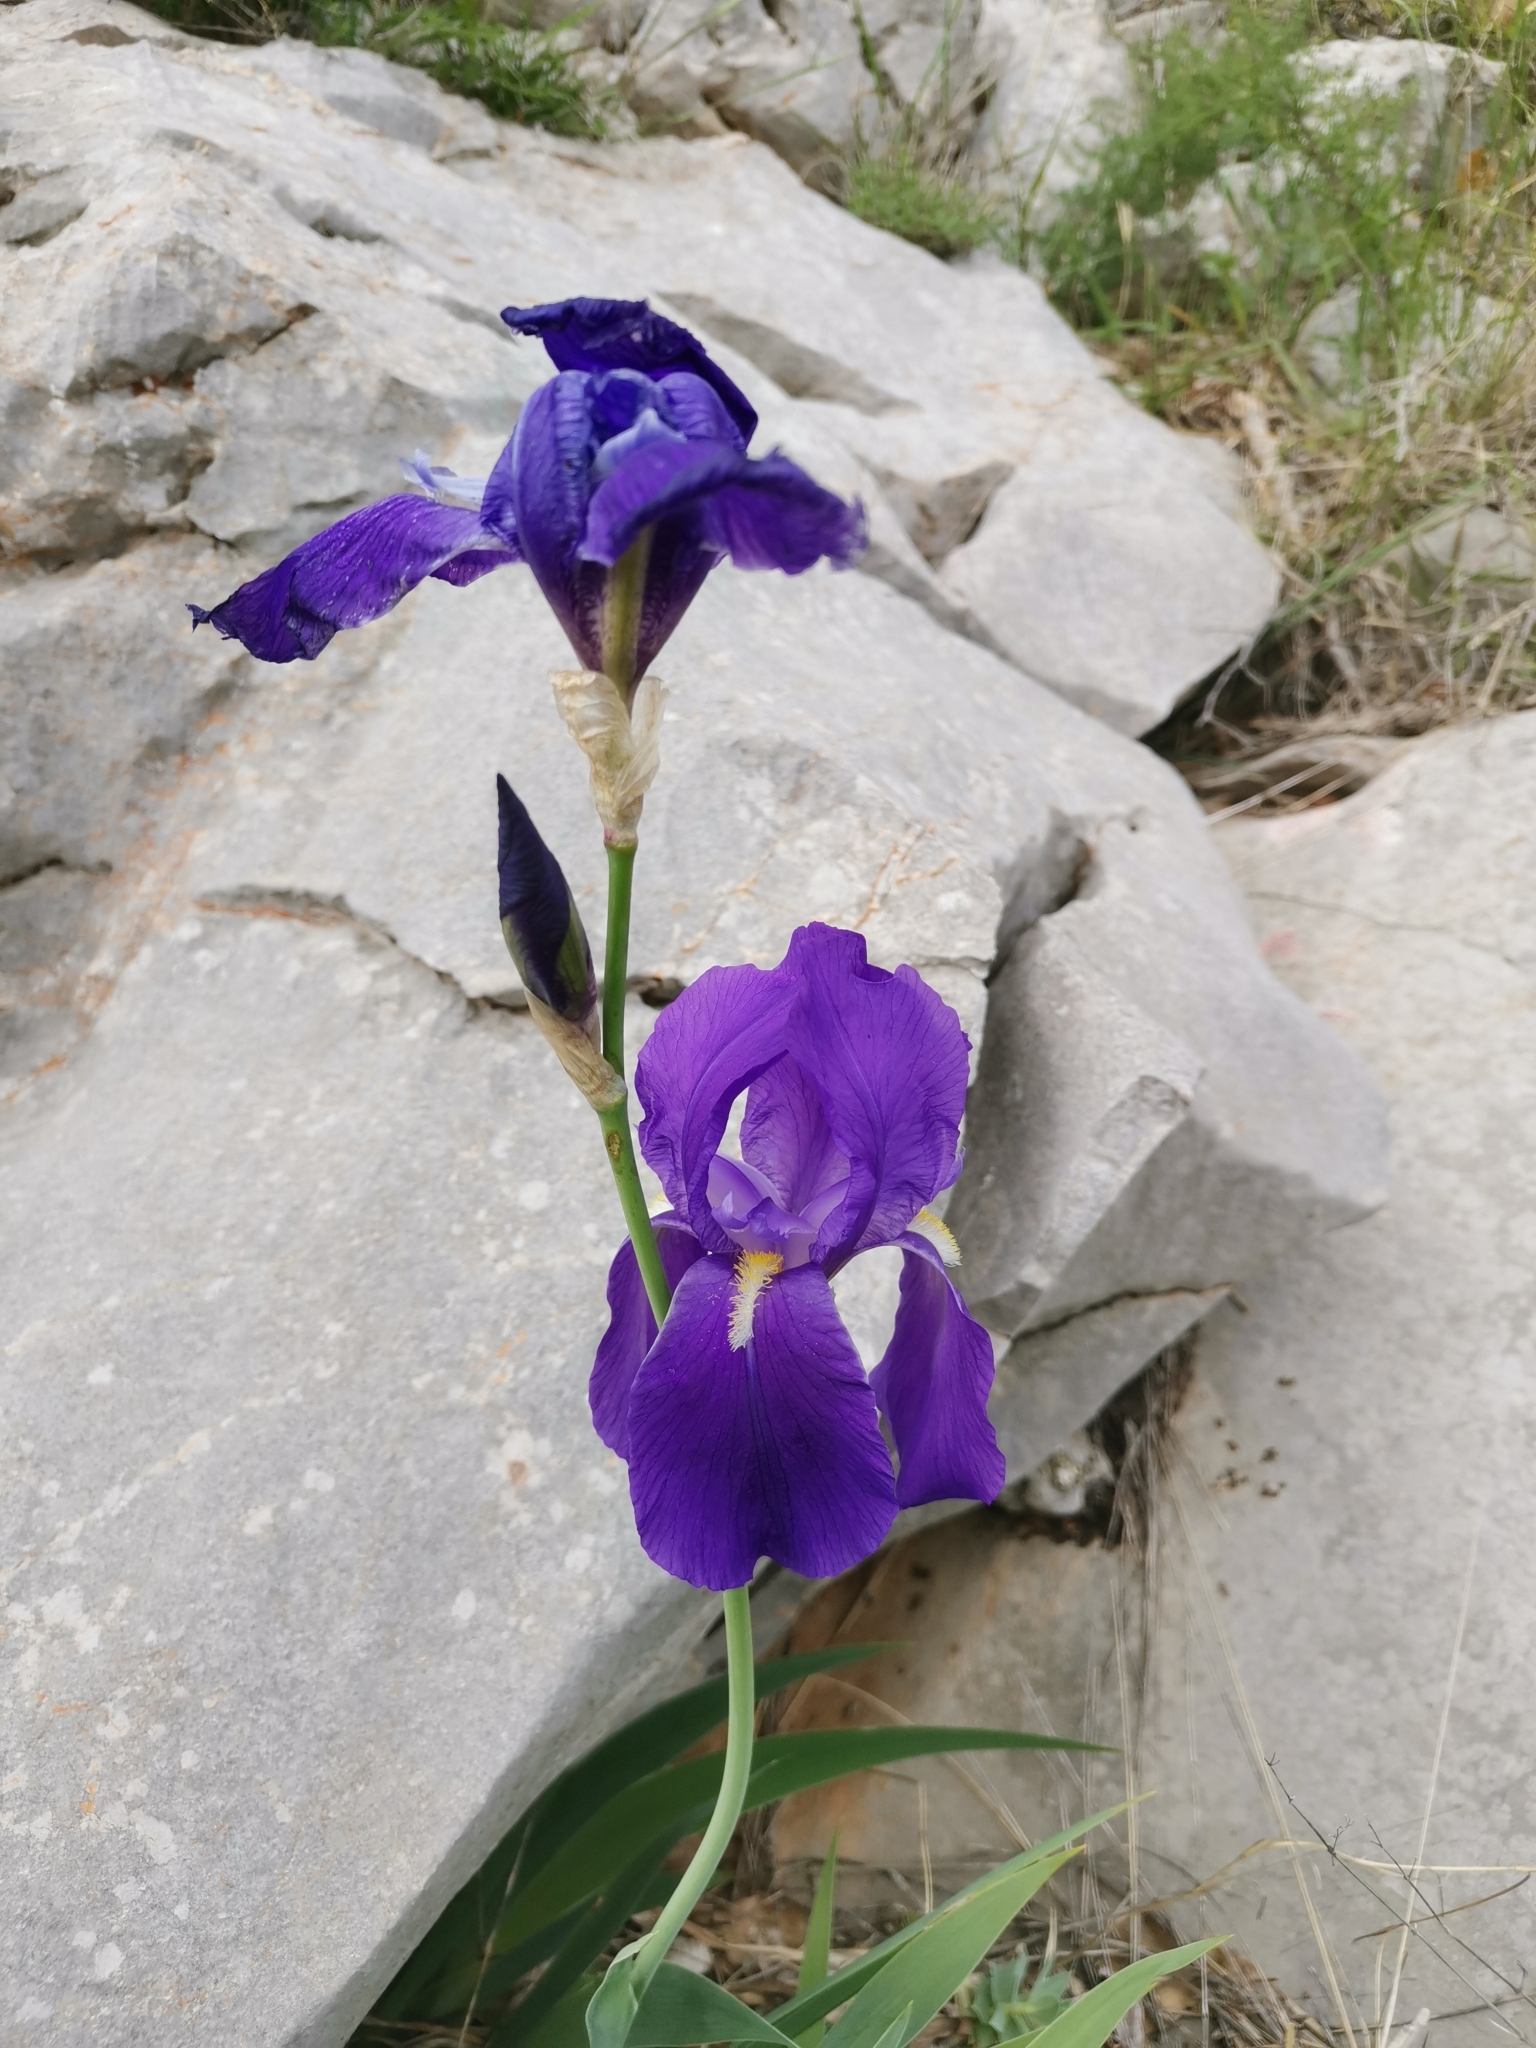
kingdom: Plantae
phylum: Tracheophyta
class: Liliopsida
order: Asparagales
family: Iridaceae
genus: Iris
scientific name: Iris pallida
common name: Sweet iris
